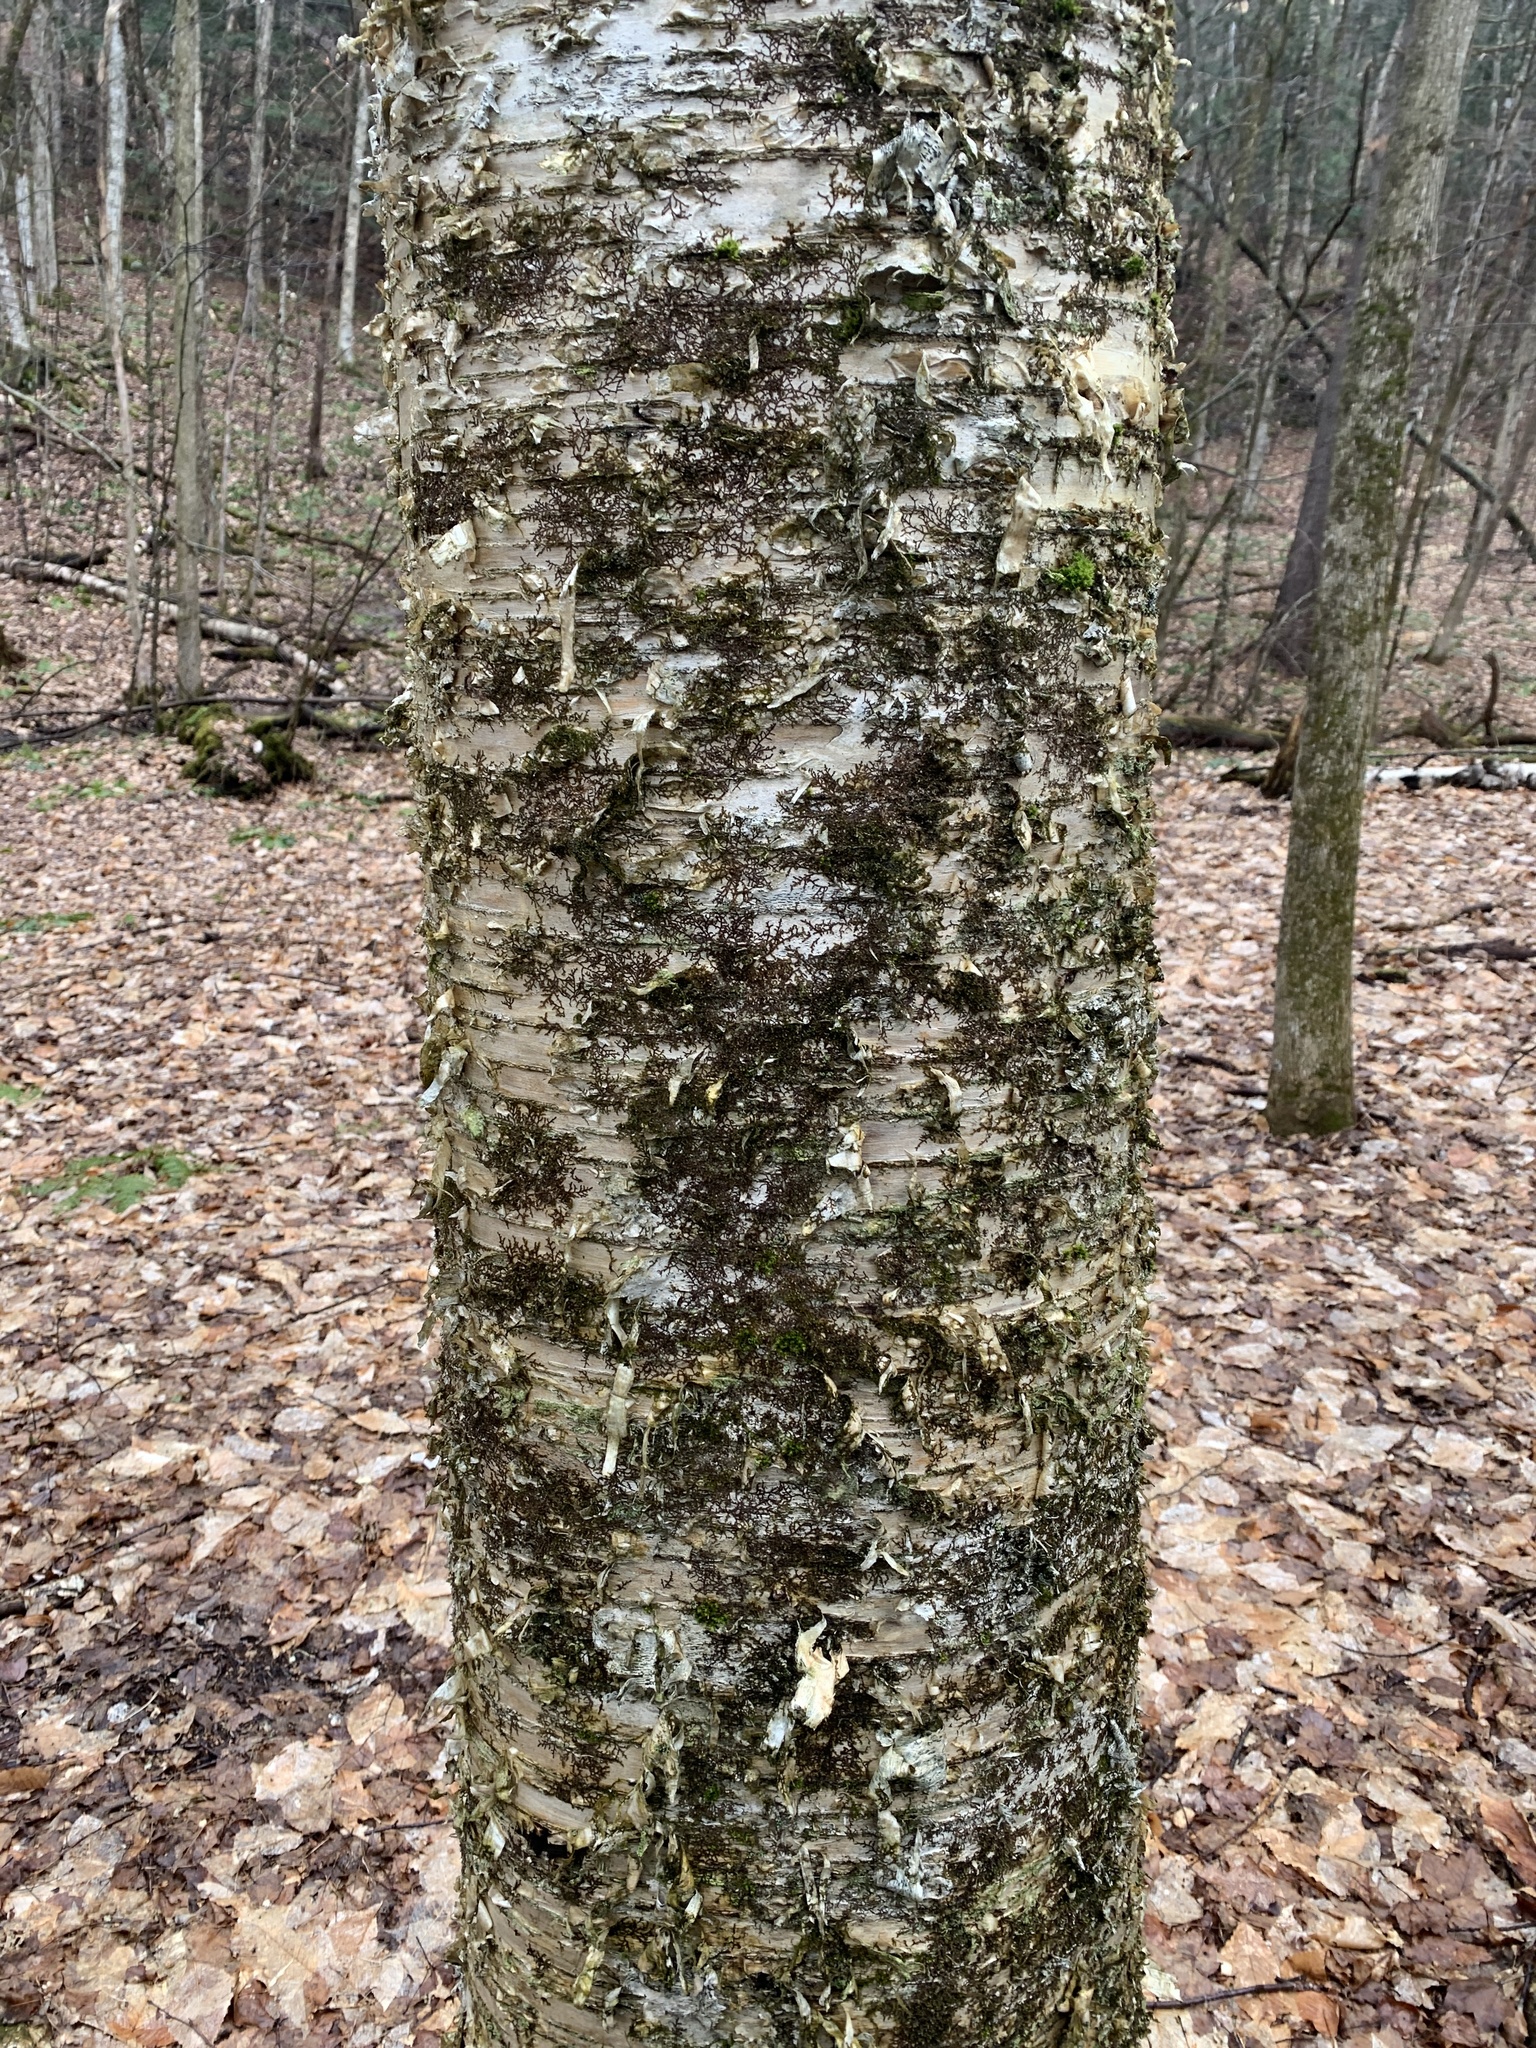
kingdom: Plantae
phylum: Tracheophyta
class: Magnoliopsida
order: Fagales
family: Betulaceae
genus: Betula
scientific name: Betula alleghaniensis
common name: Yellow birch
